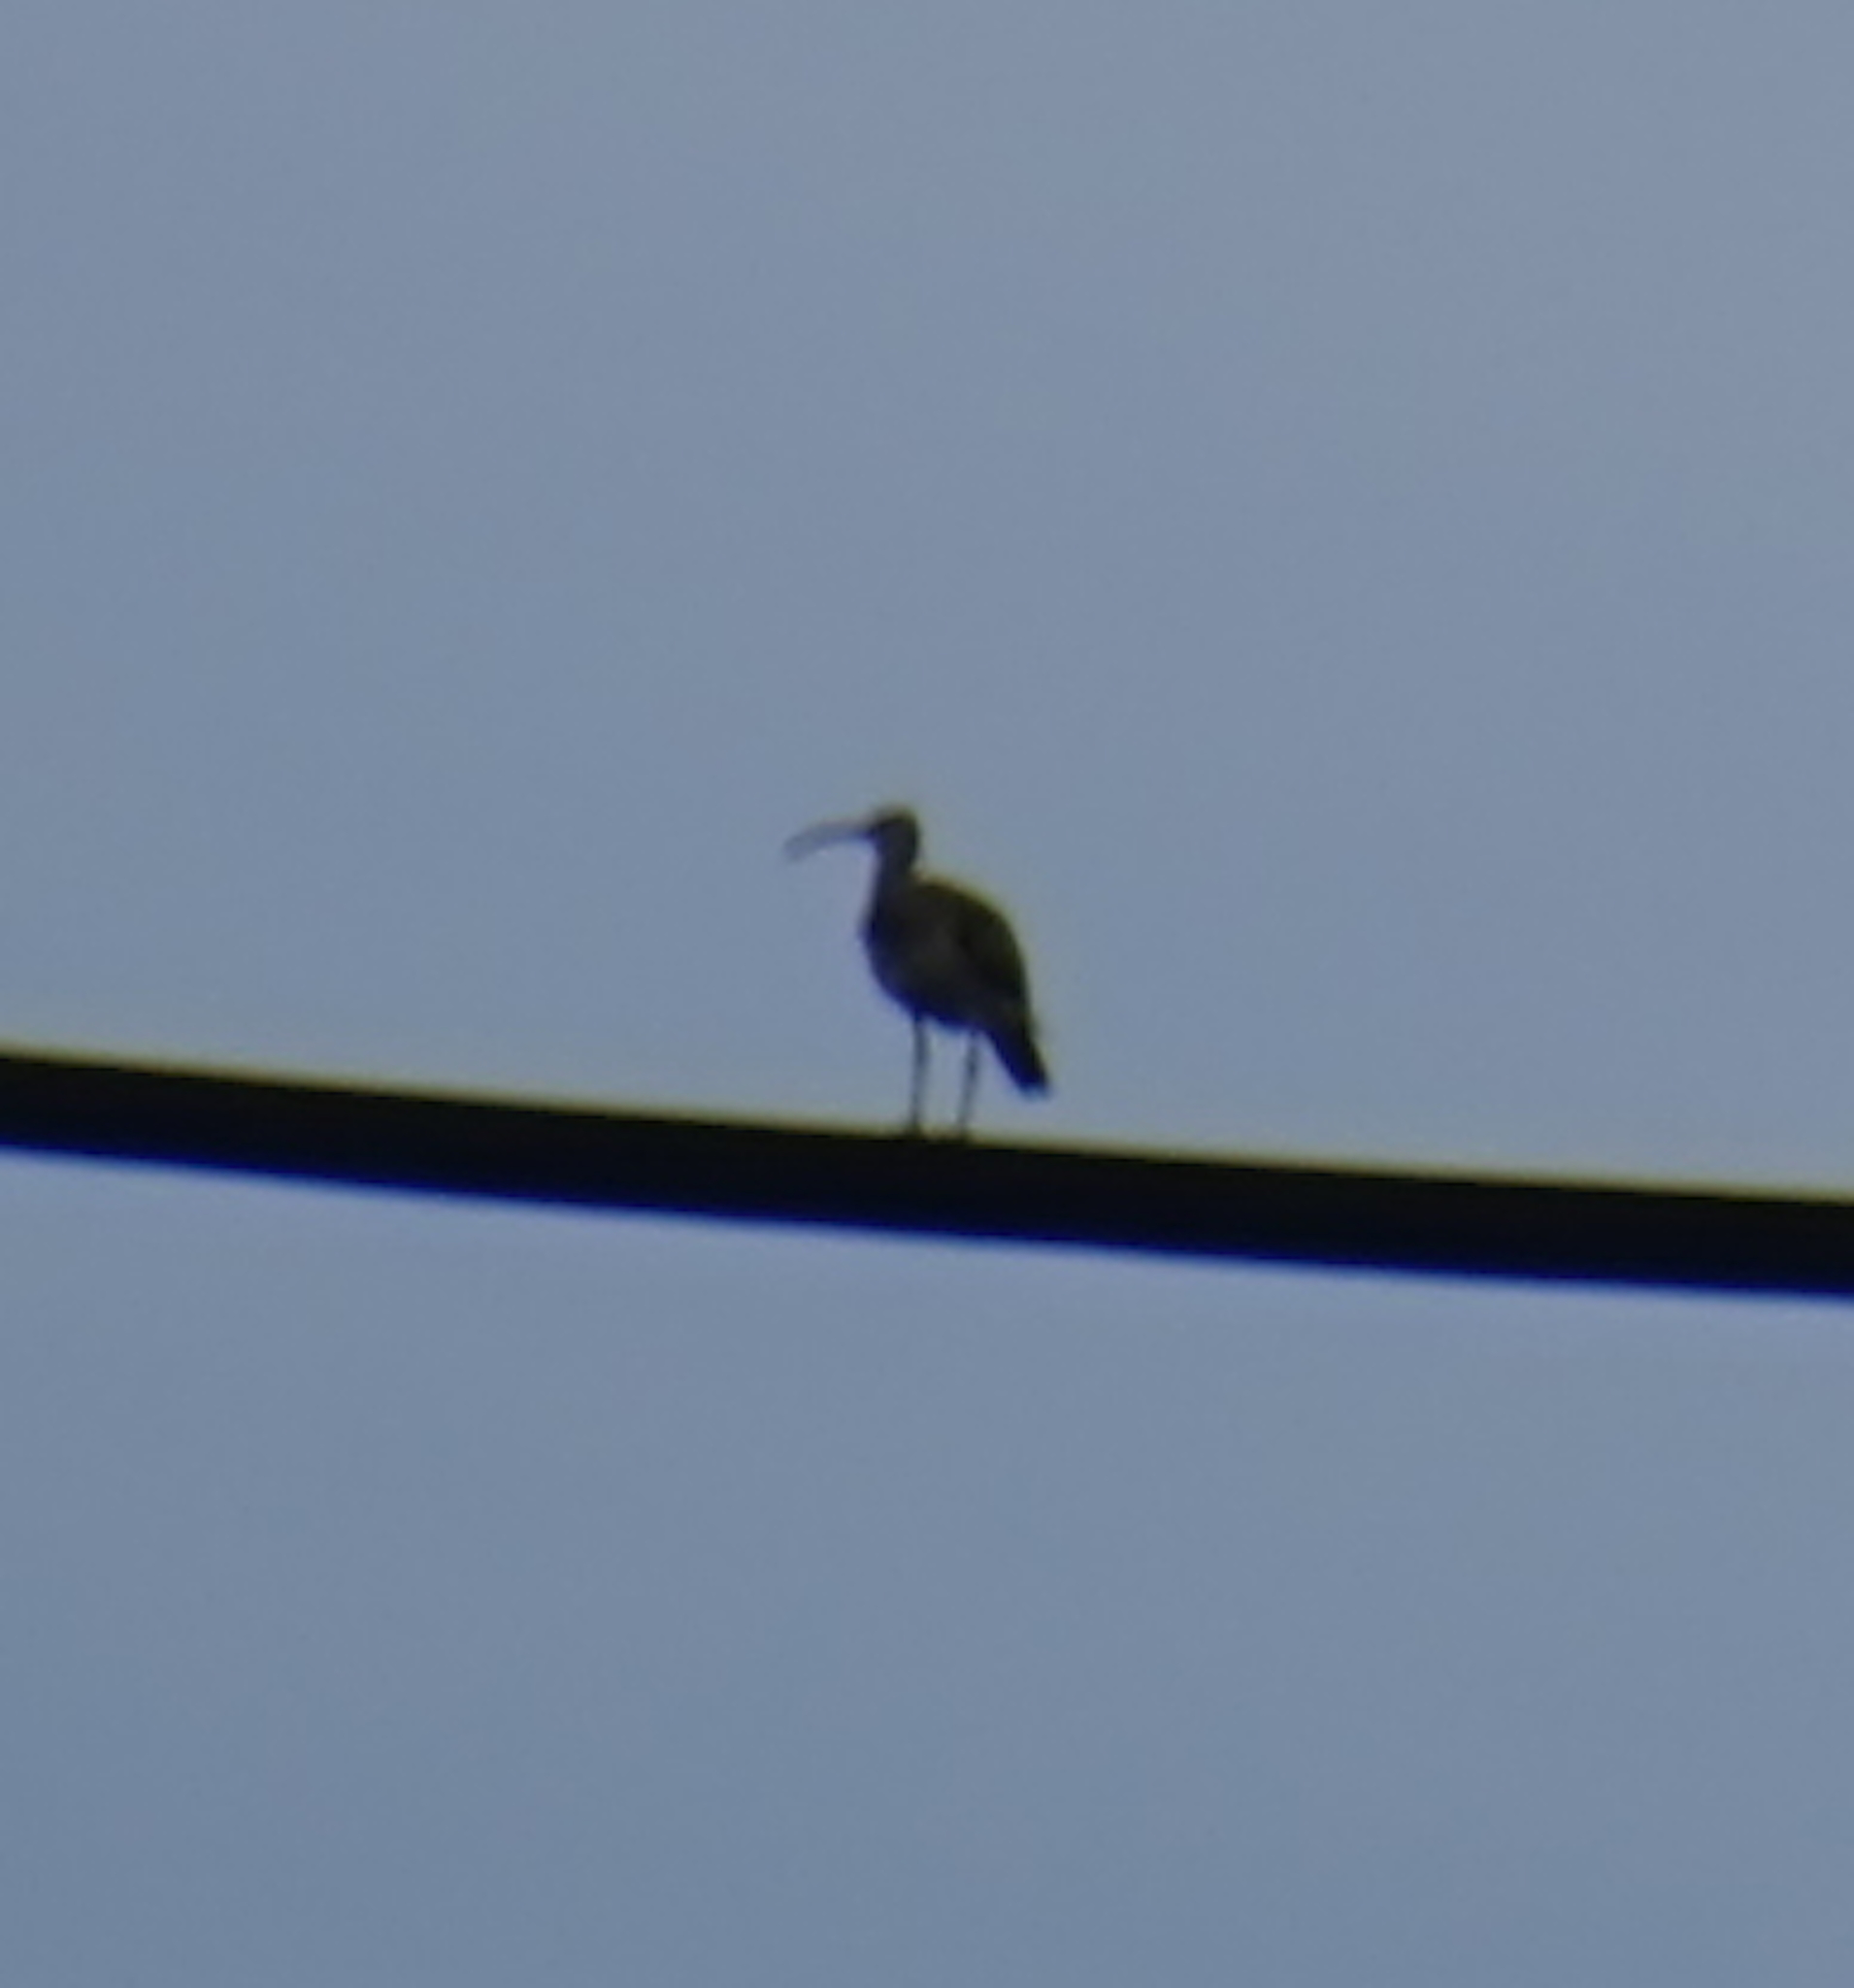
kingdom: Animalia
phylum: Chordata
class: Aves
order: Charadriiformes
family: Scolopacidae
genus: Numenius
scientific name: Numenius phaeopus
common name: Whimbrel
